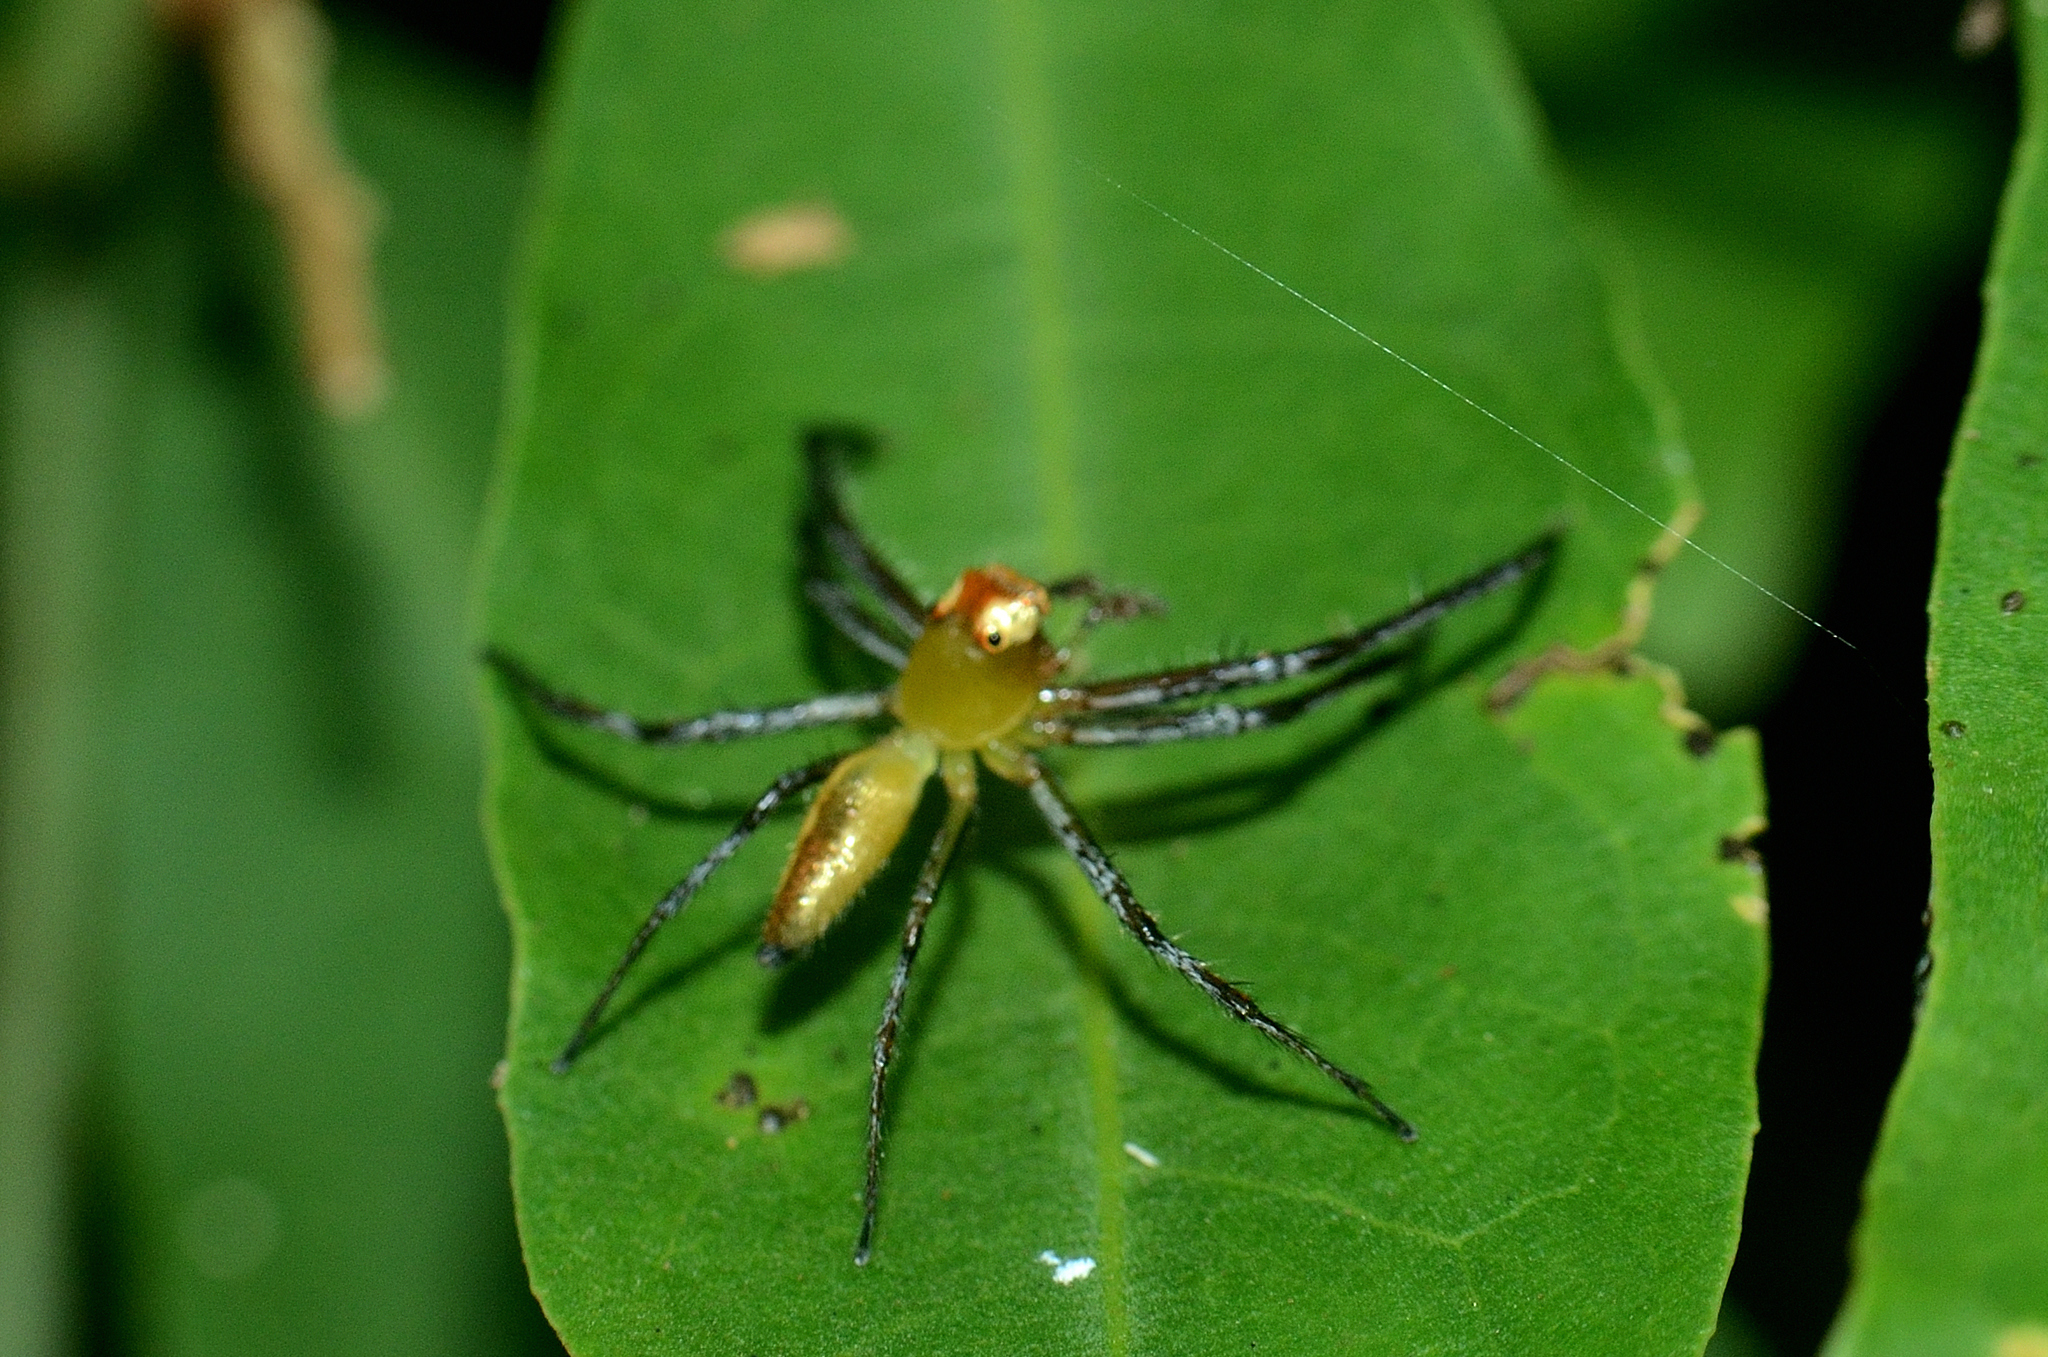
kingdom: Animalia
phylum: Arthropoda
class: Arachnida
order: Araneae
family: Salticidae
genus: Epeus
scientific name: Epeus glorius
